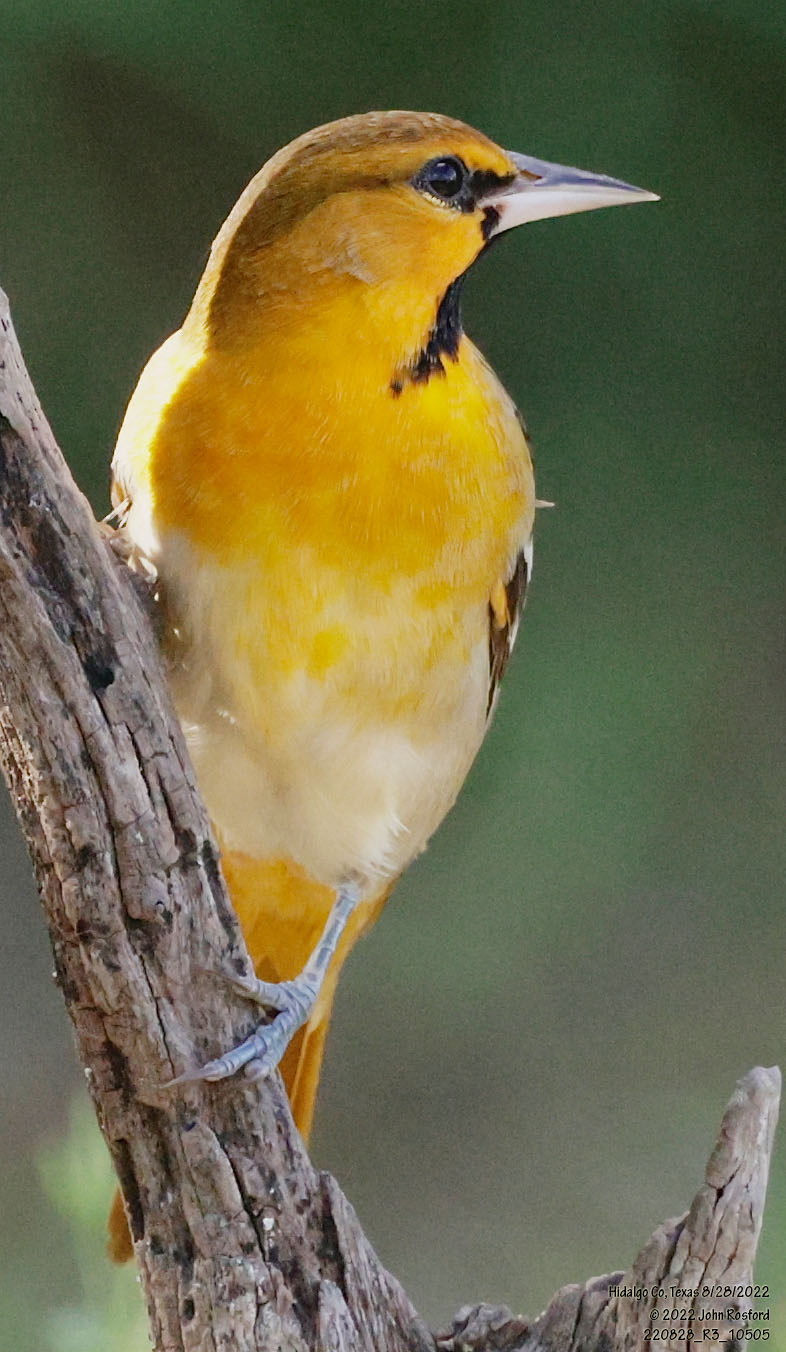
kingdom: Animalia
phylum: Chordata
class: Aves
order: Passeriformes
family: Icteridae
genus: Icterus
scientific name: Icterus bullockii
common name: Bullock's oriole
